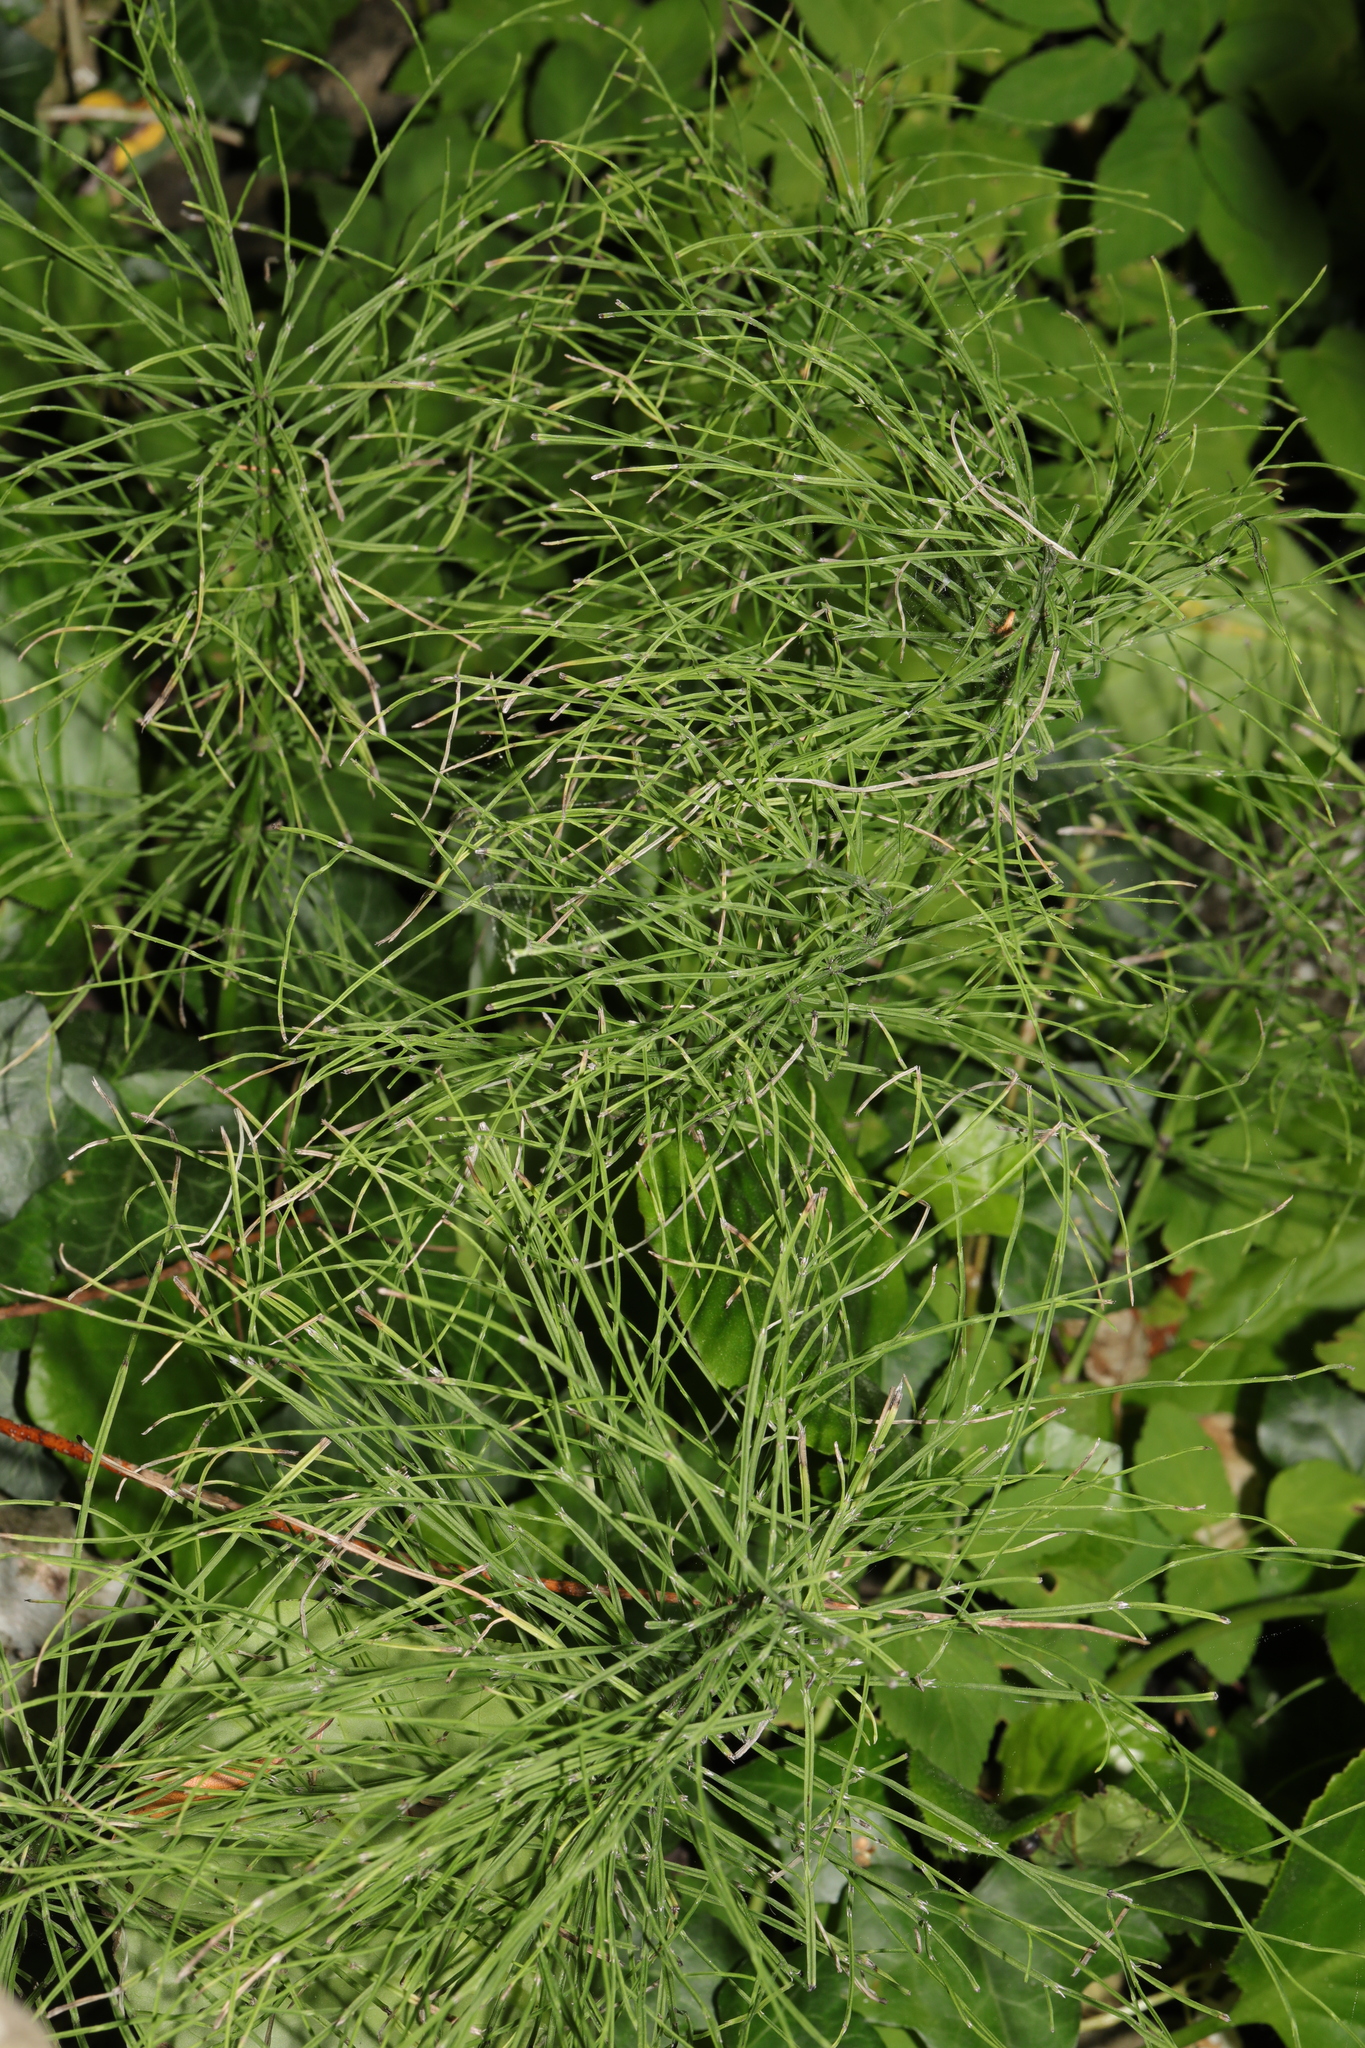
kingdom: Plantae
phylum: Tracheophyta
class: Polypodiopsida
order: Equisetales
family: Equisetaceae
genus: Equisetum
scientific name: Equisetum arvense
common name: Field horsetail
